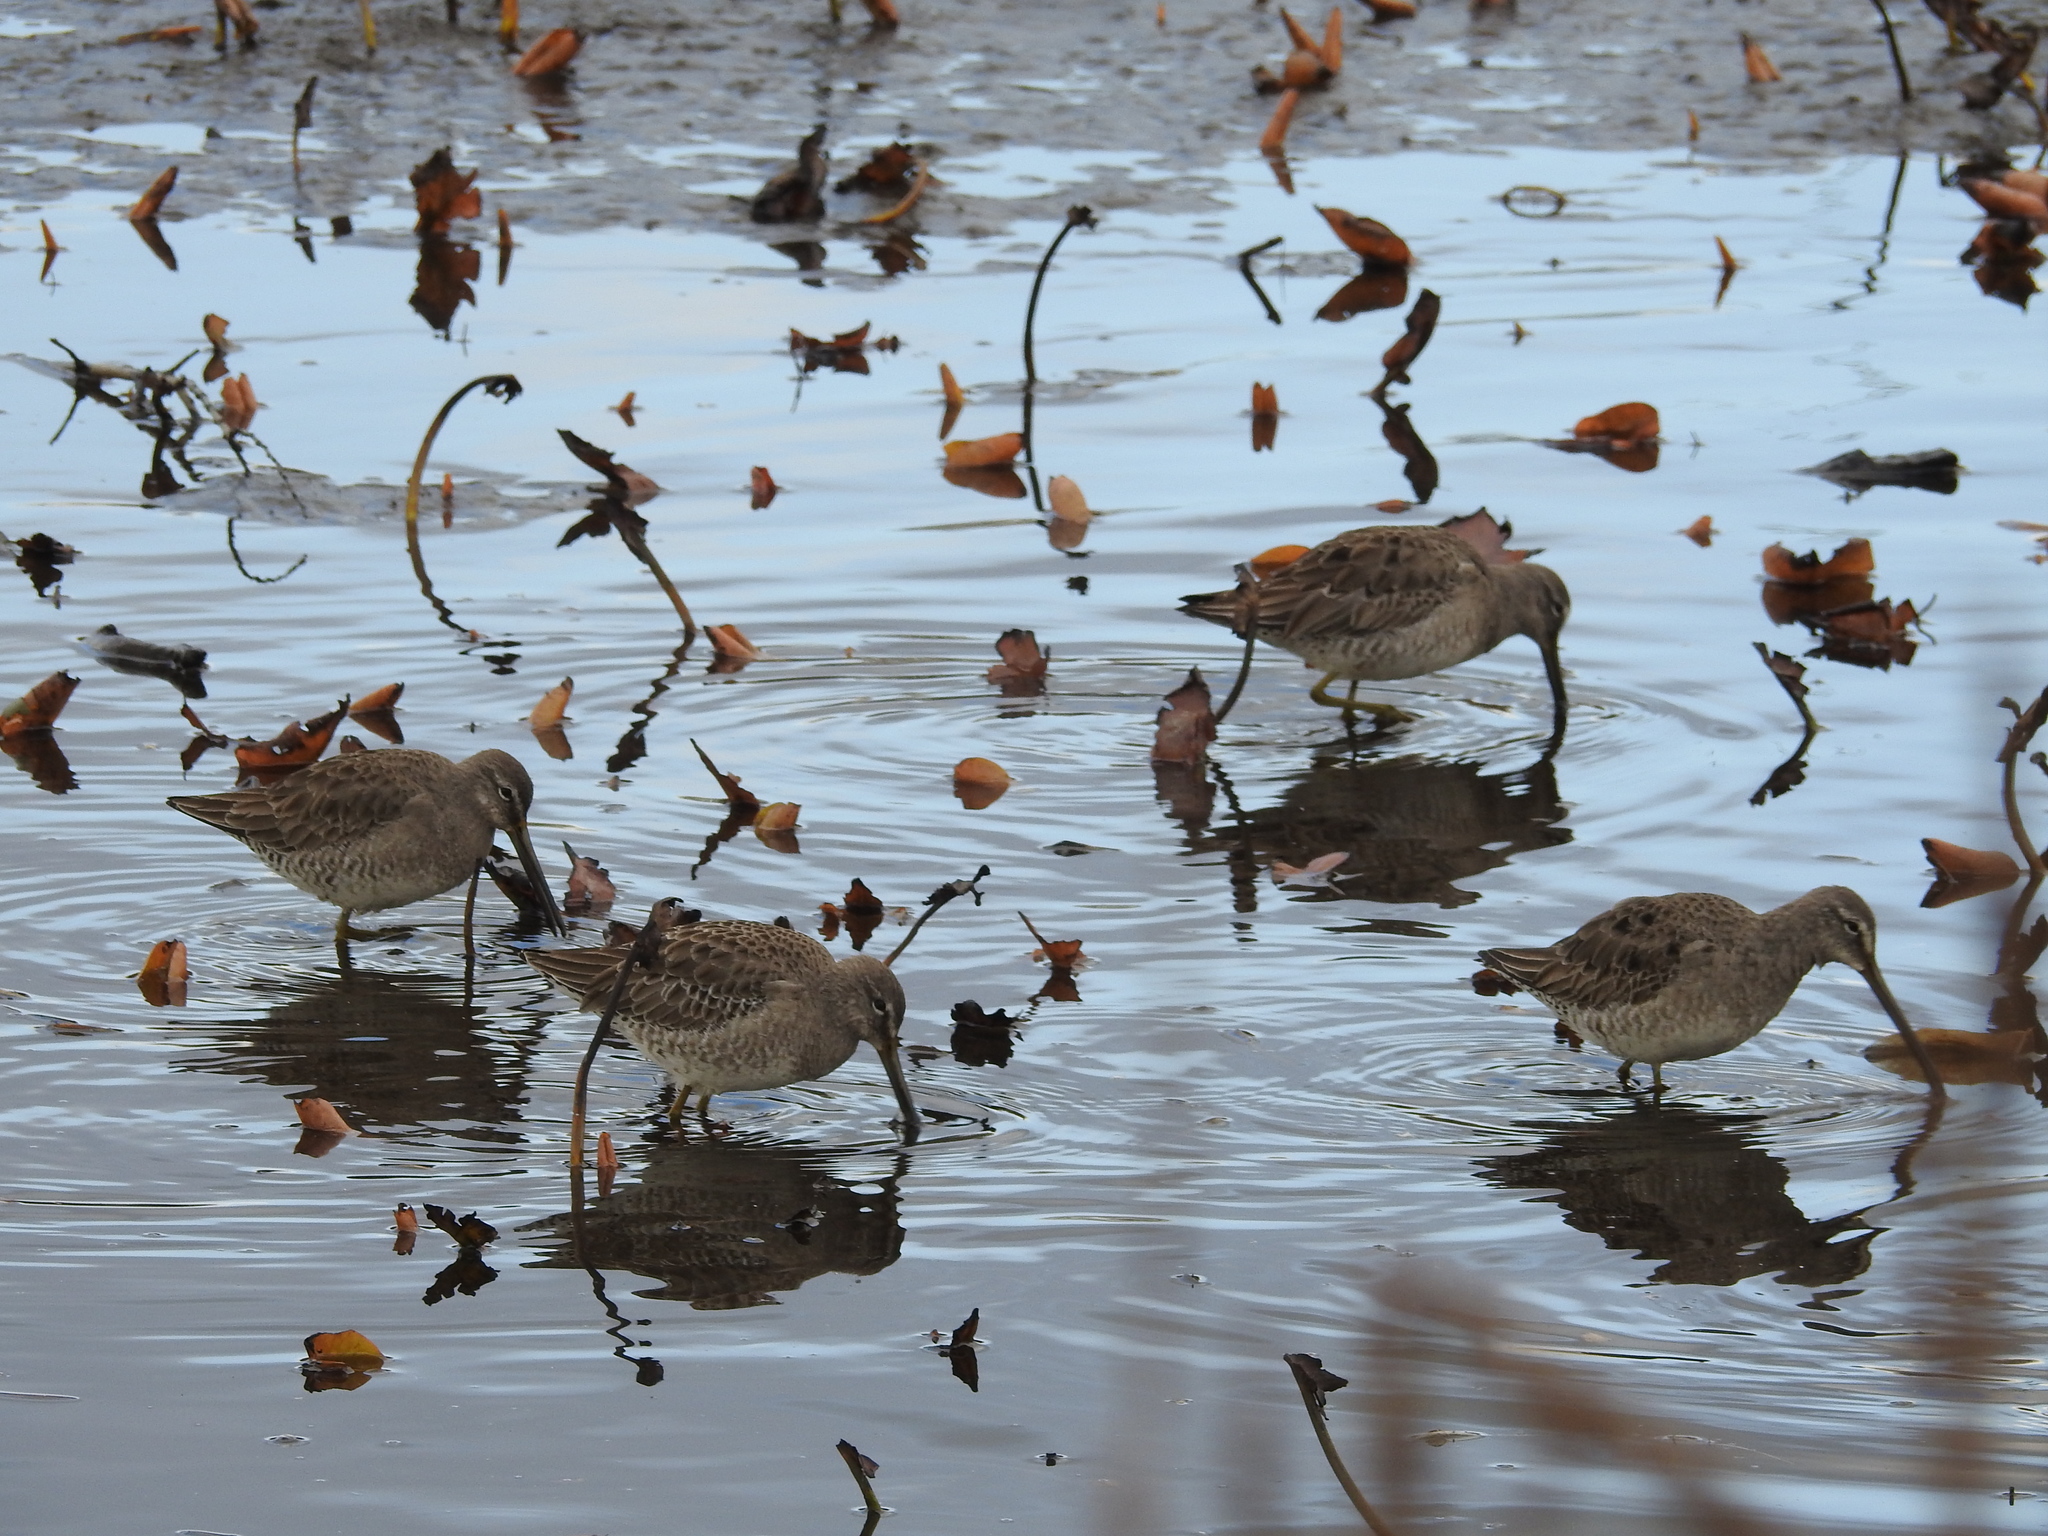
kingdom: Animalia
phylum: Chordata
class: Aves
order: Charadriiformes
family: Scolopacidae
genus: Limnodromus
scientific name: Limnodromus scolopaceus
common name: Long-billed dowitcher
